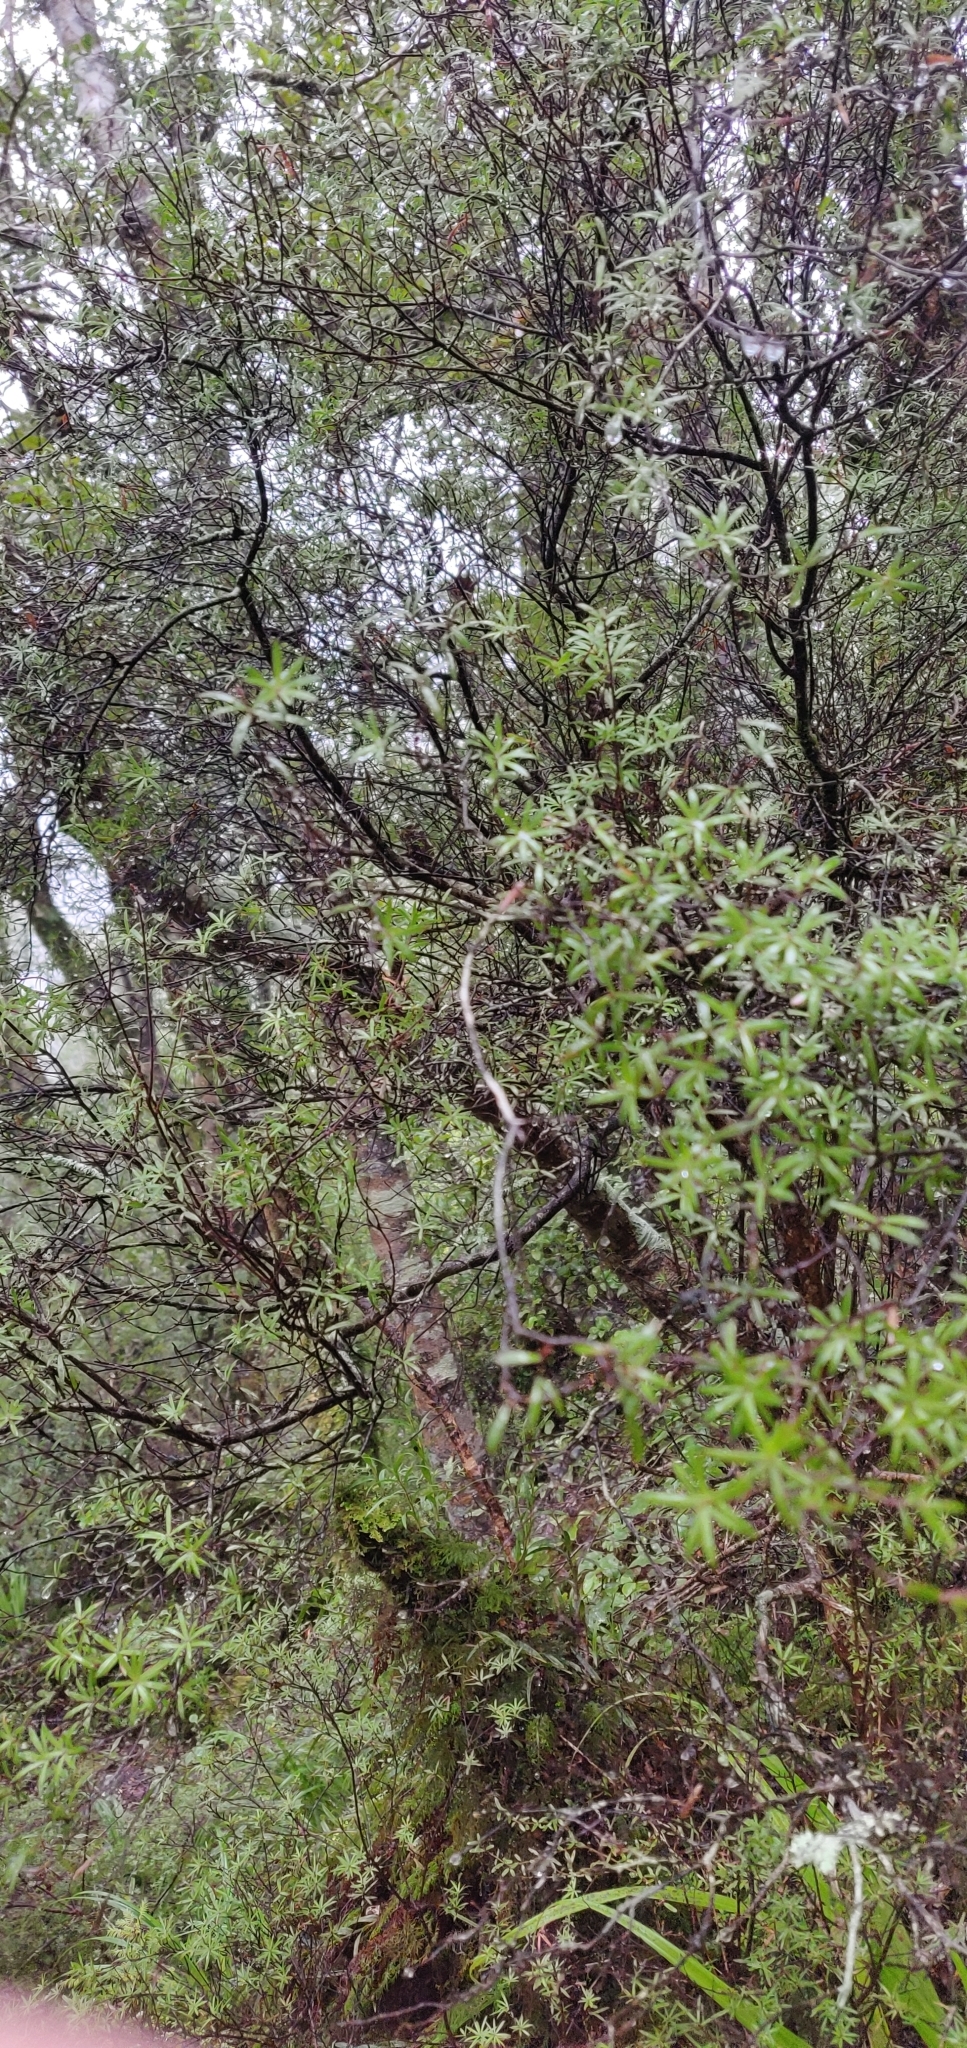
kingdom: Plantae
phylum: Tracheophyta
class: Magnoliopsida
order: Ericales
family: Ericaceae
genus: Leucopogon
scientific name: Leucopogon fasciculatus
